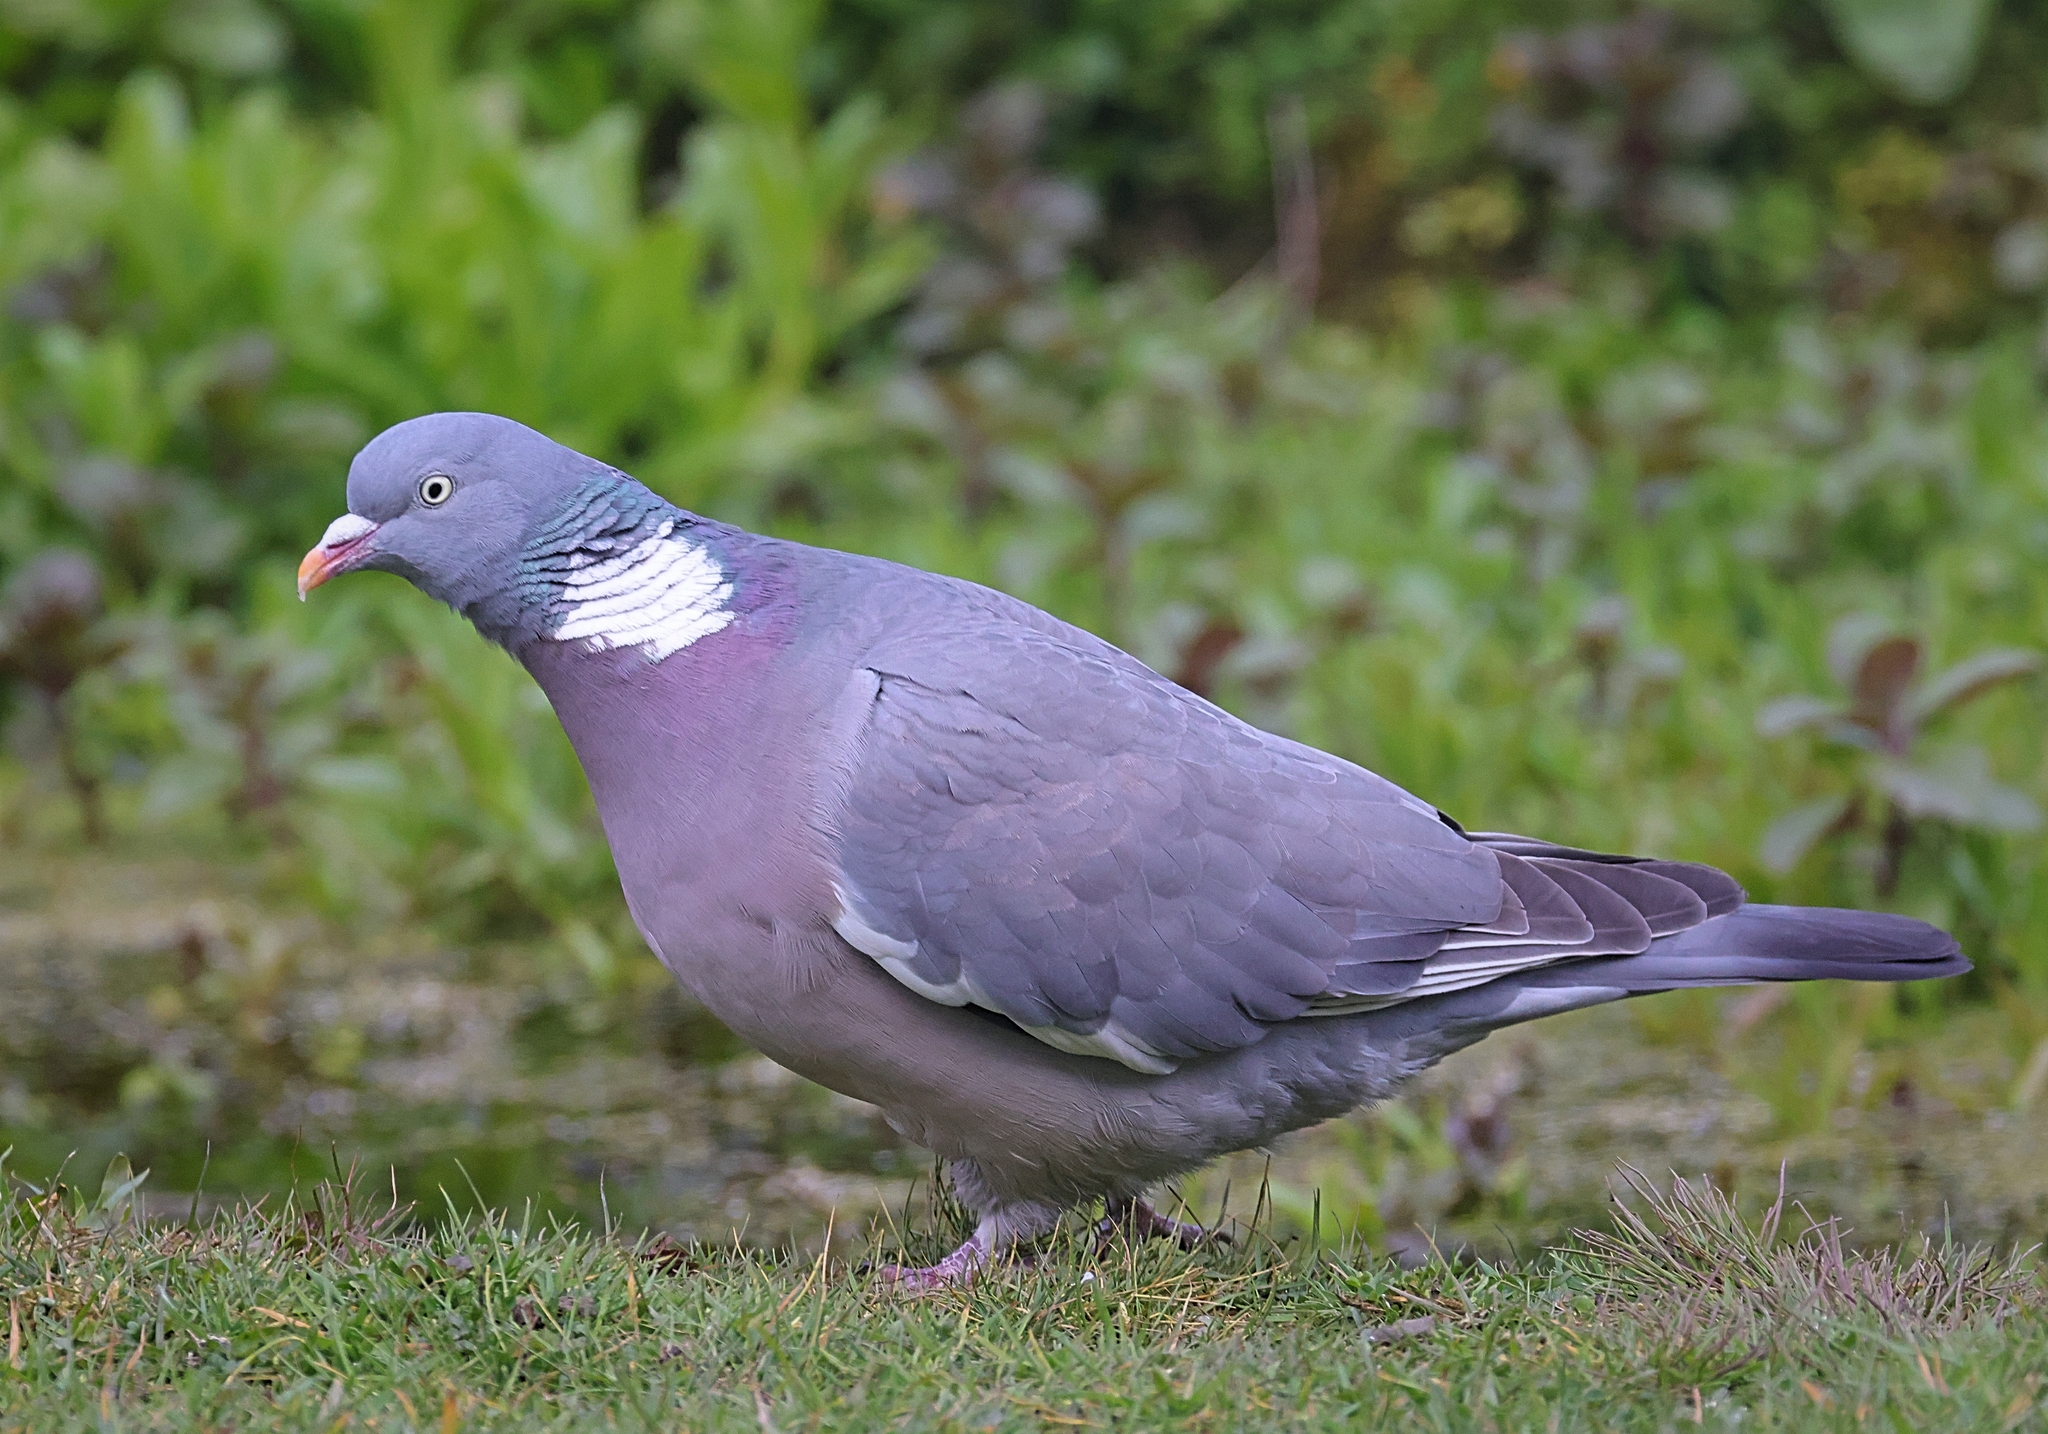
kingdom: Animalia
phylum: Chordata
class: Aves
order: Columbiformes
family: Columbidae
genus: Columba
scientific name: Columba palumbus
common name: Common wood pigeon
